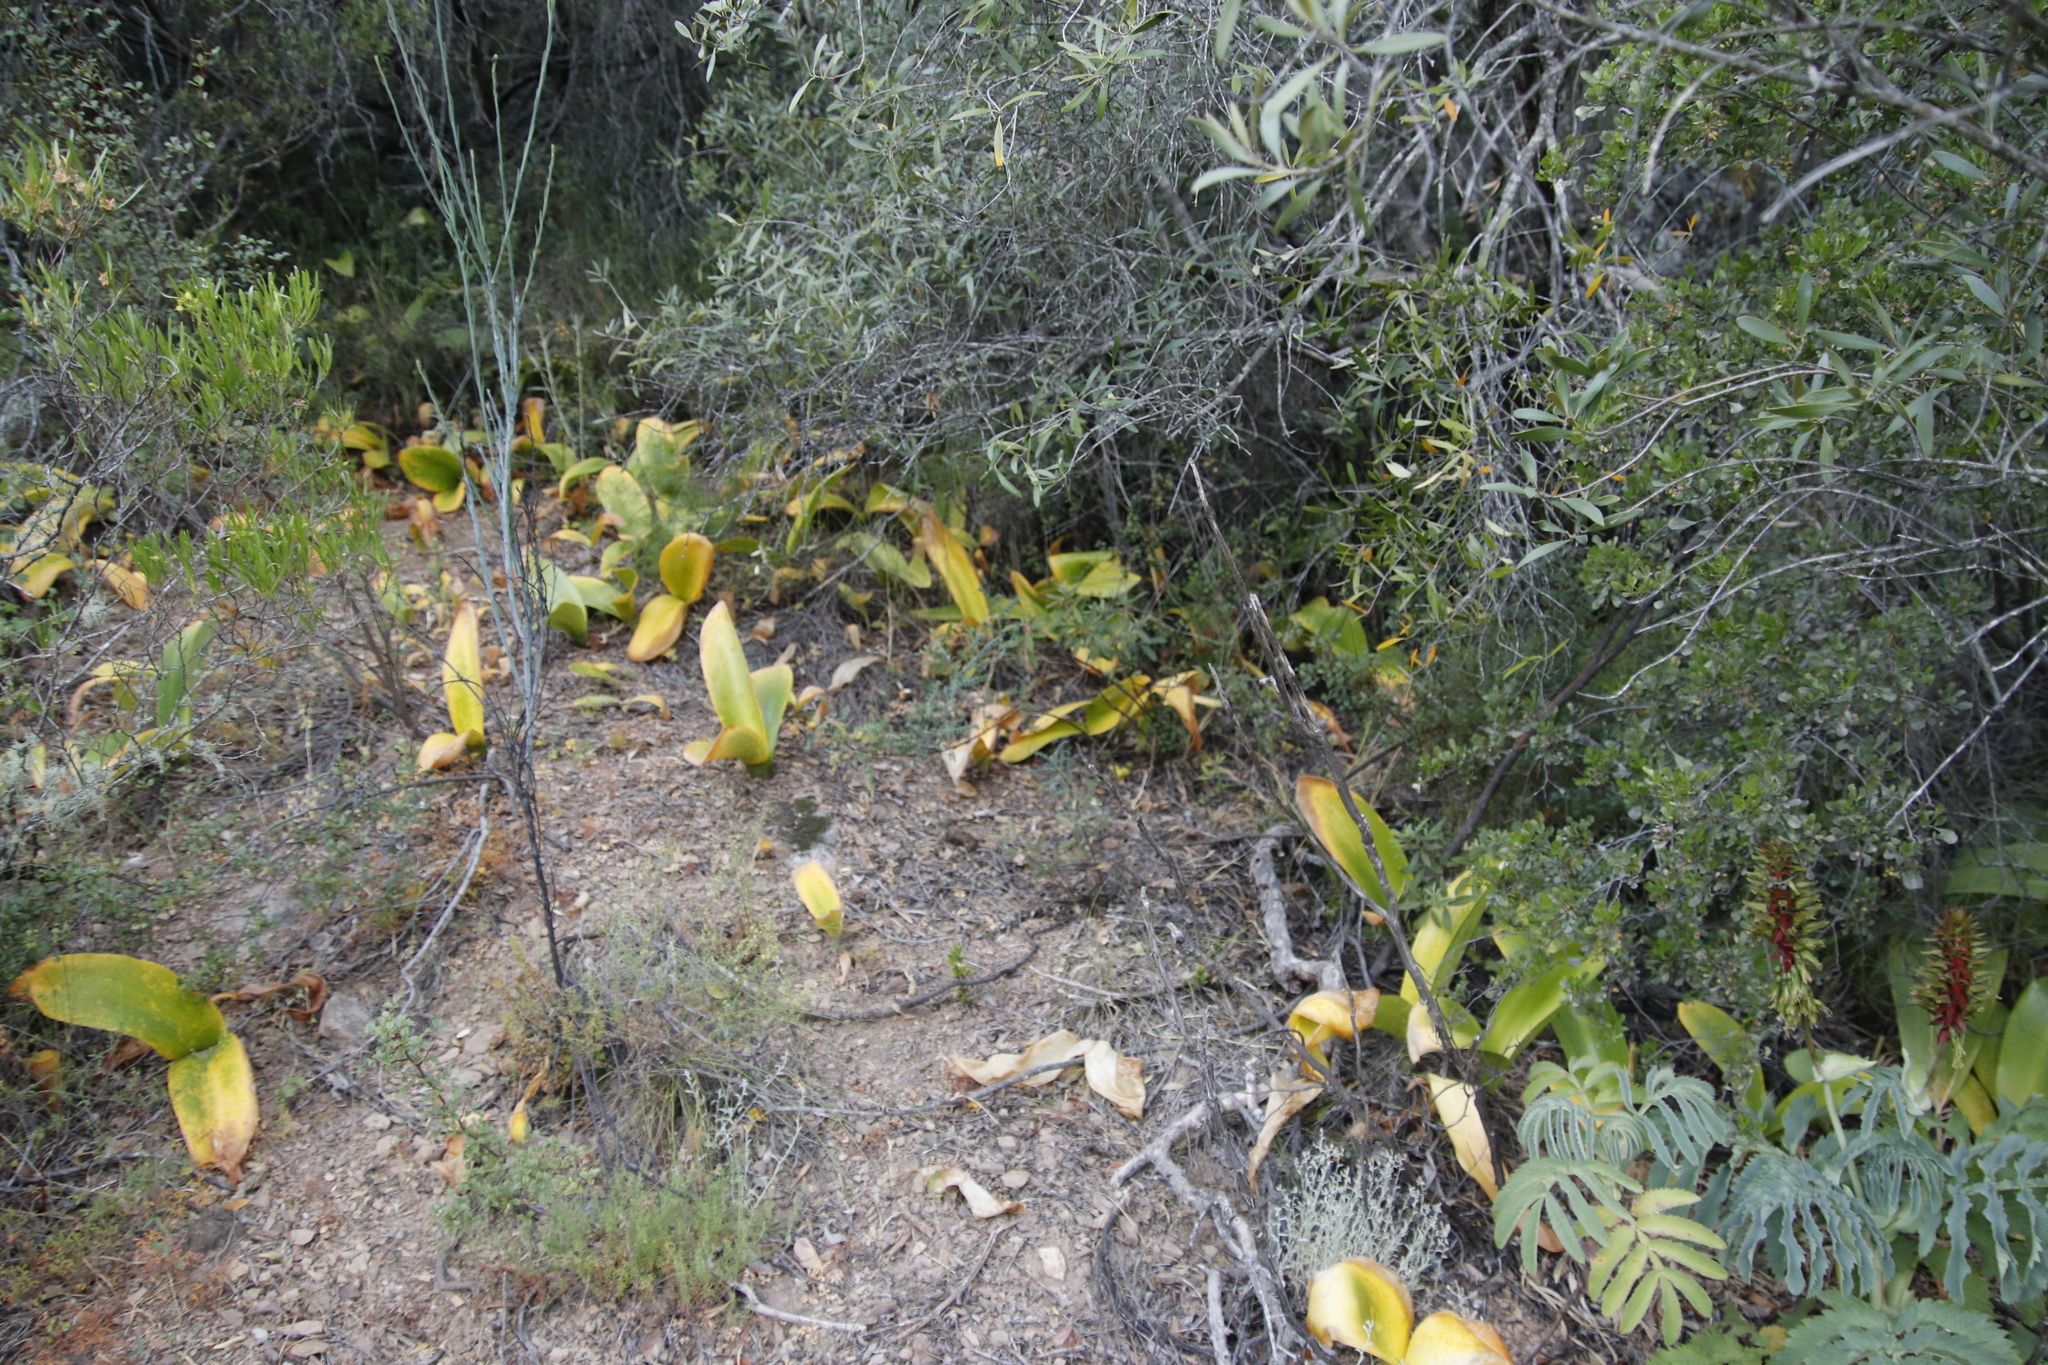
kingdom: Plantae
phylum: Tracheophyta
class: Liliopsida
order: Asparagales
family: Amaryllidaceae
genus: Haemanthus
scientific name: Haemanthus coccineus
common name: Cape-tulip
